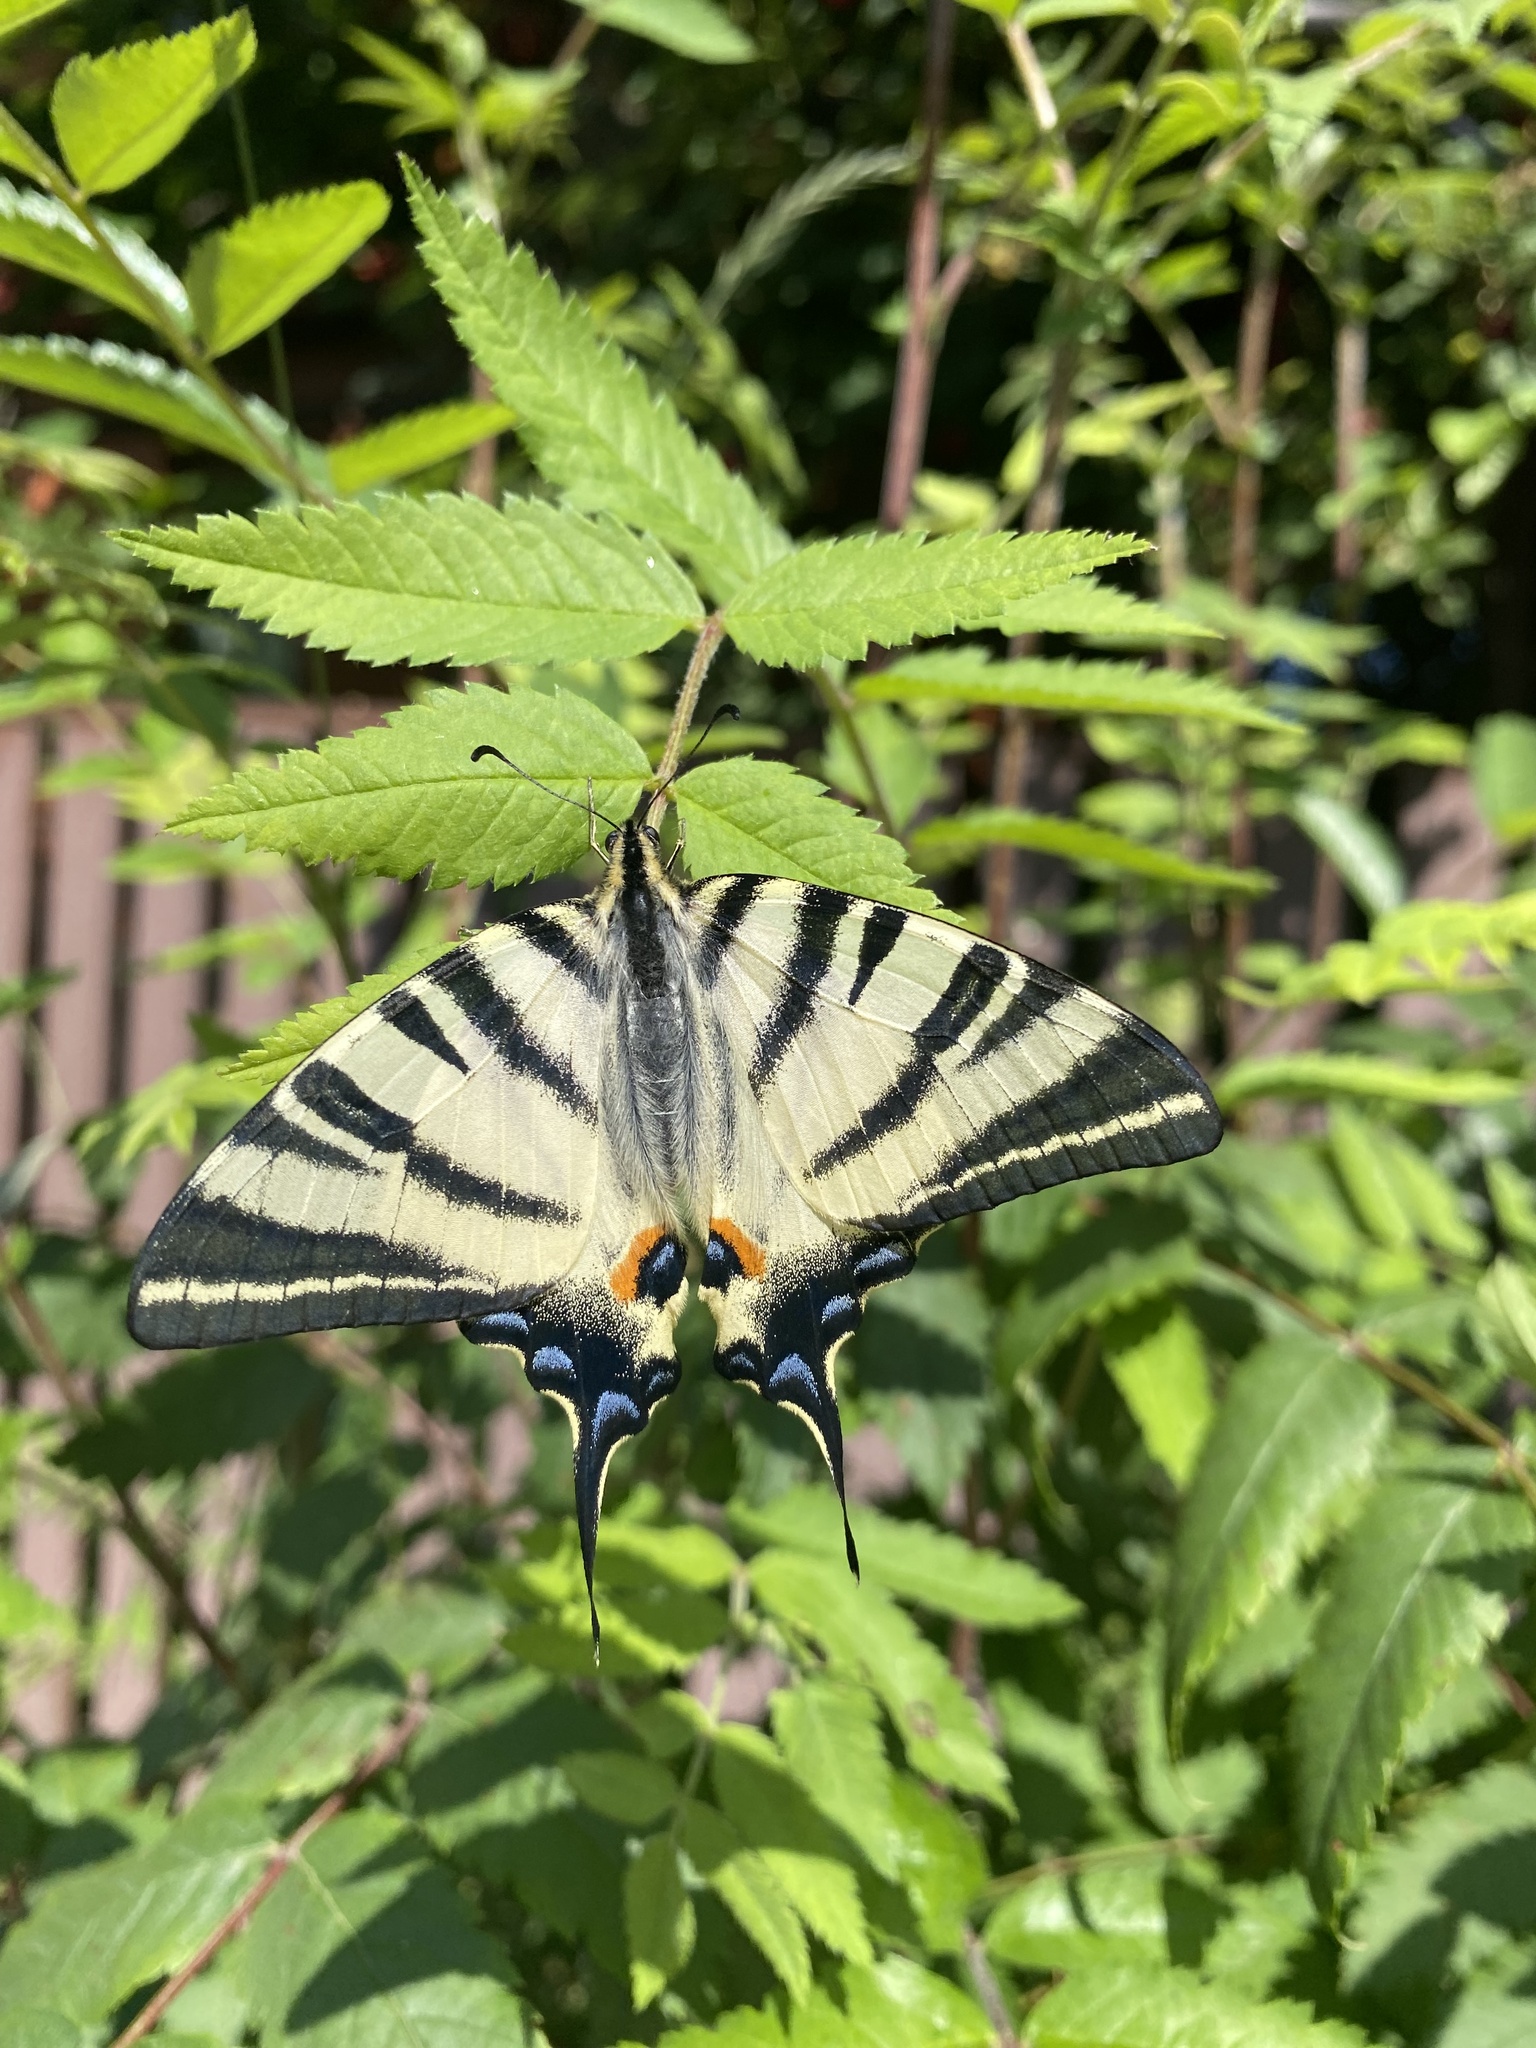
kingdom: Animalia
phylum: Arthropoda
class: Insecta
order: Lepidoptera
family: Papilionidae
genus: Iphiclides
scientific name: Iphiclides podalirius
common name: Scarce swallowtail
